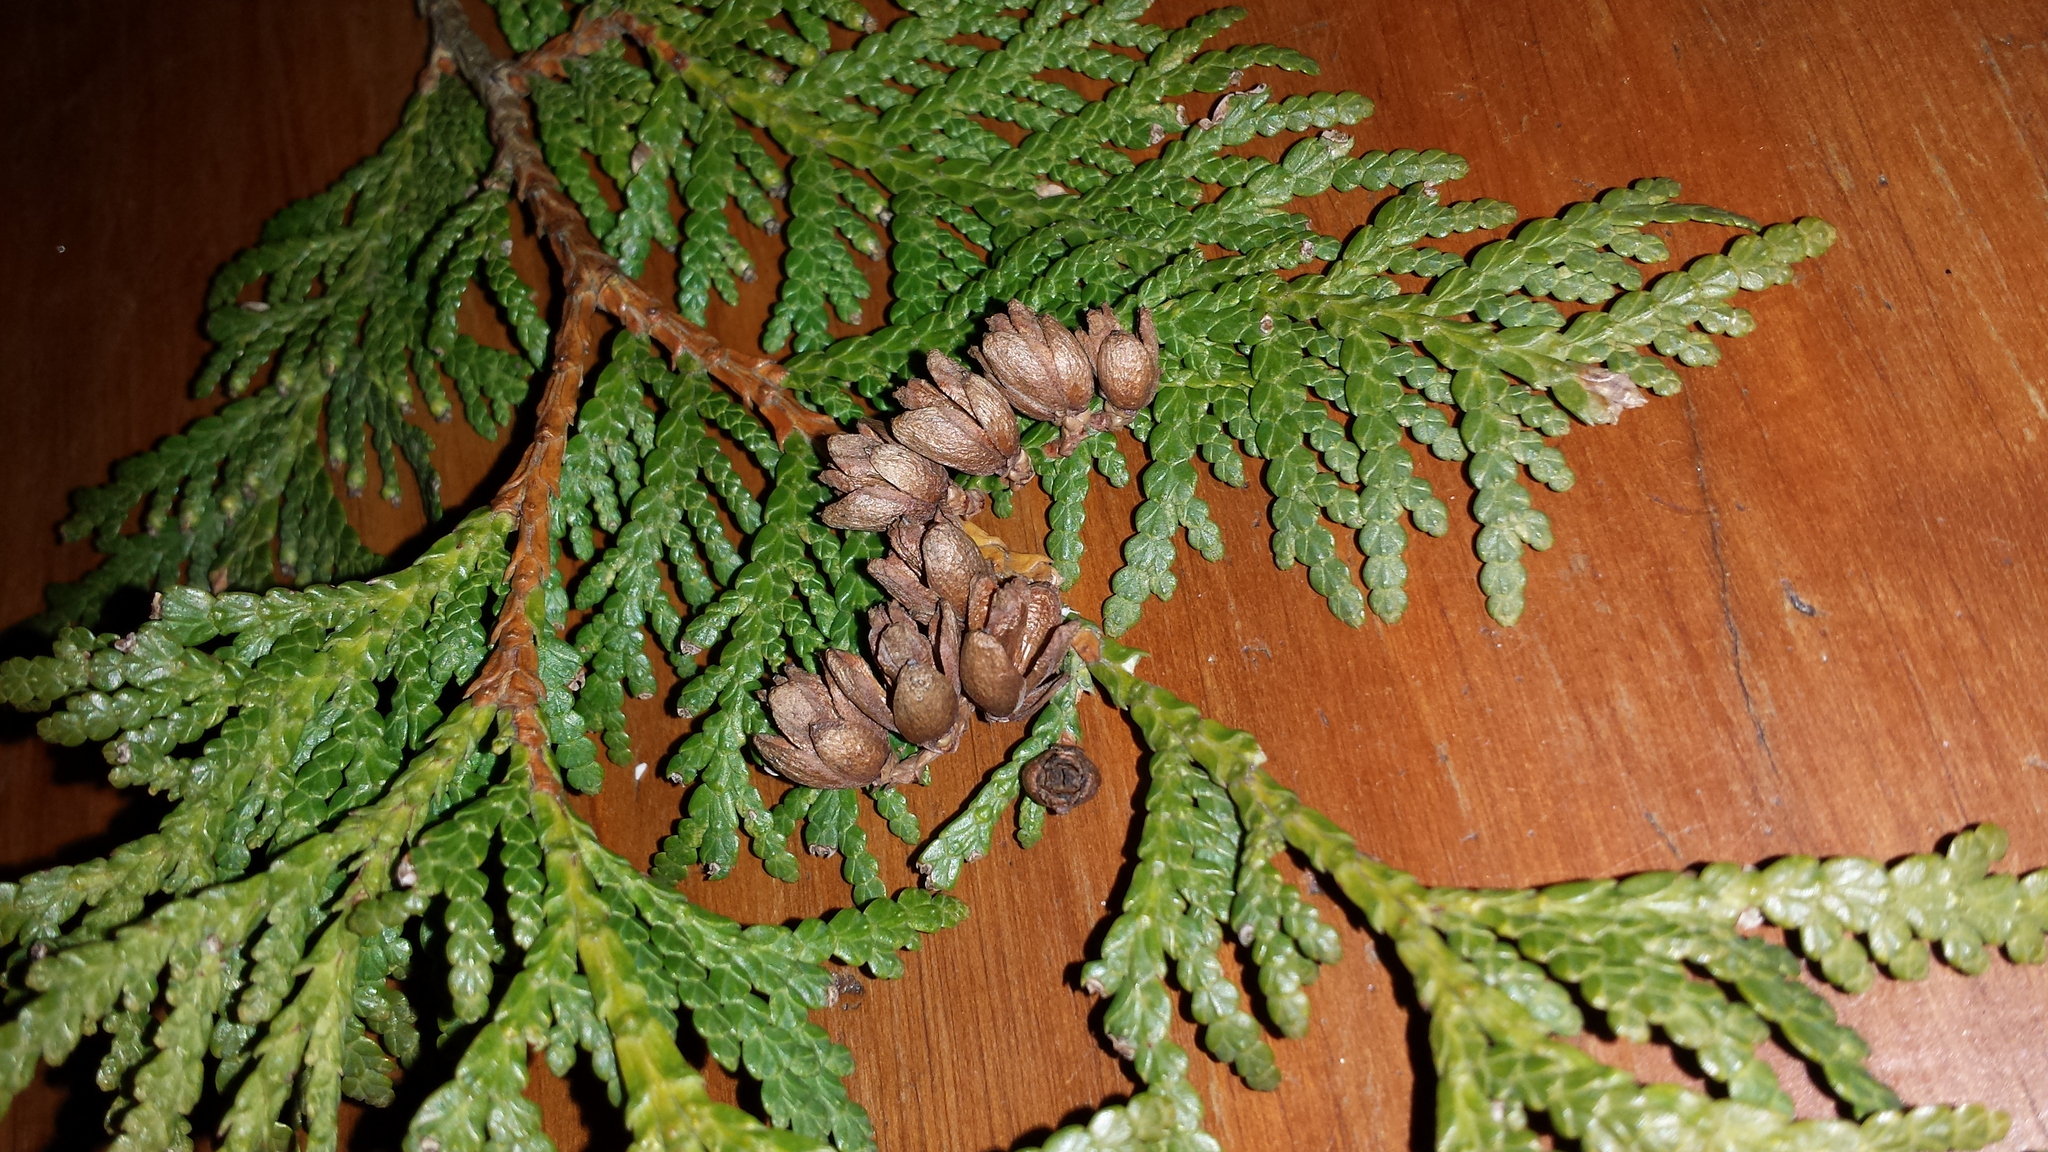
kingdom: Plantae
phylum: Tracheophyta
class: Pinopsida
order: Pinales
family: Cupressaceae
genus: Thuja
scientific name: Thuja occidentalis
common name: Northern white-cedar
